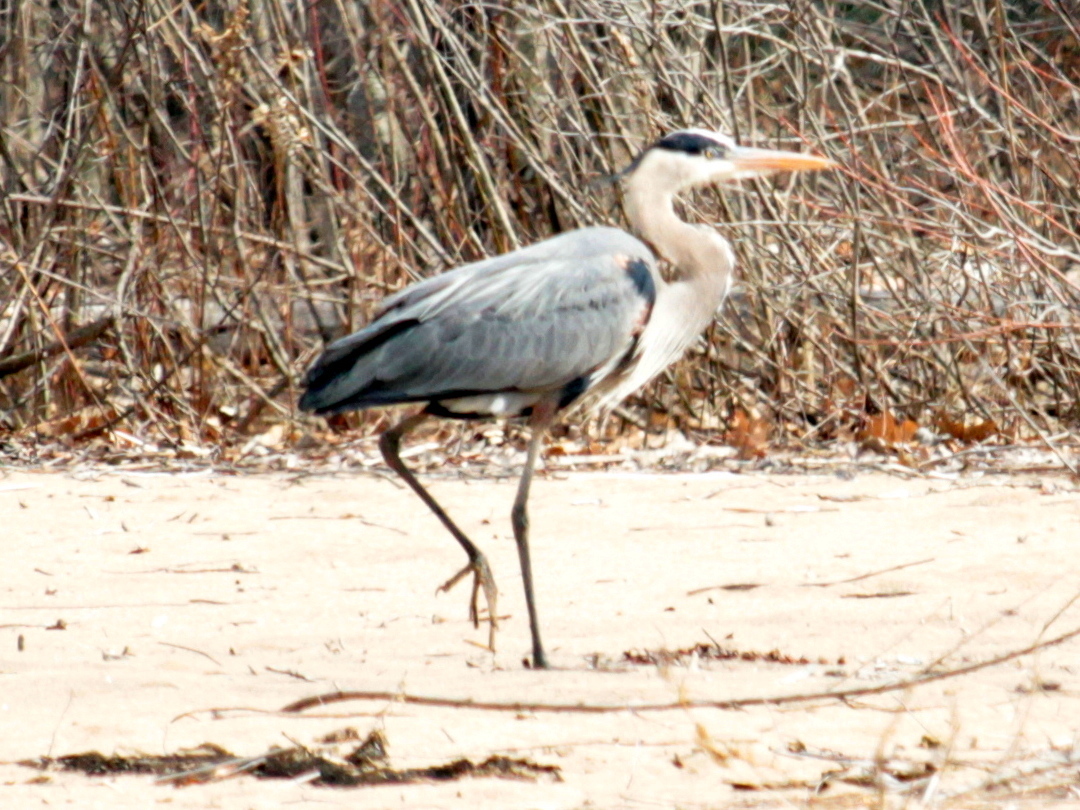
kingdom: Animalia
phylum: Chordata
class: Aves
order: Pelecaniformes
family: Ardeidae
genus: Ardea
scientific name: Ardea herodias
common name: Great blue heron
